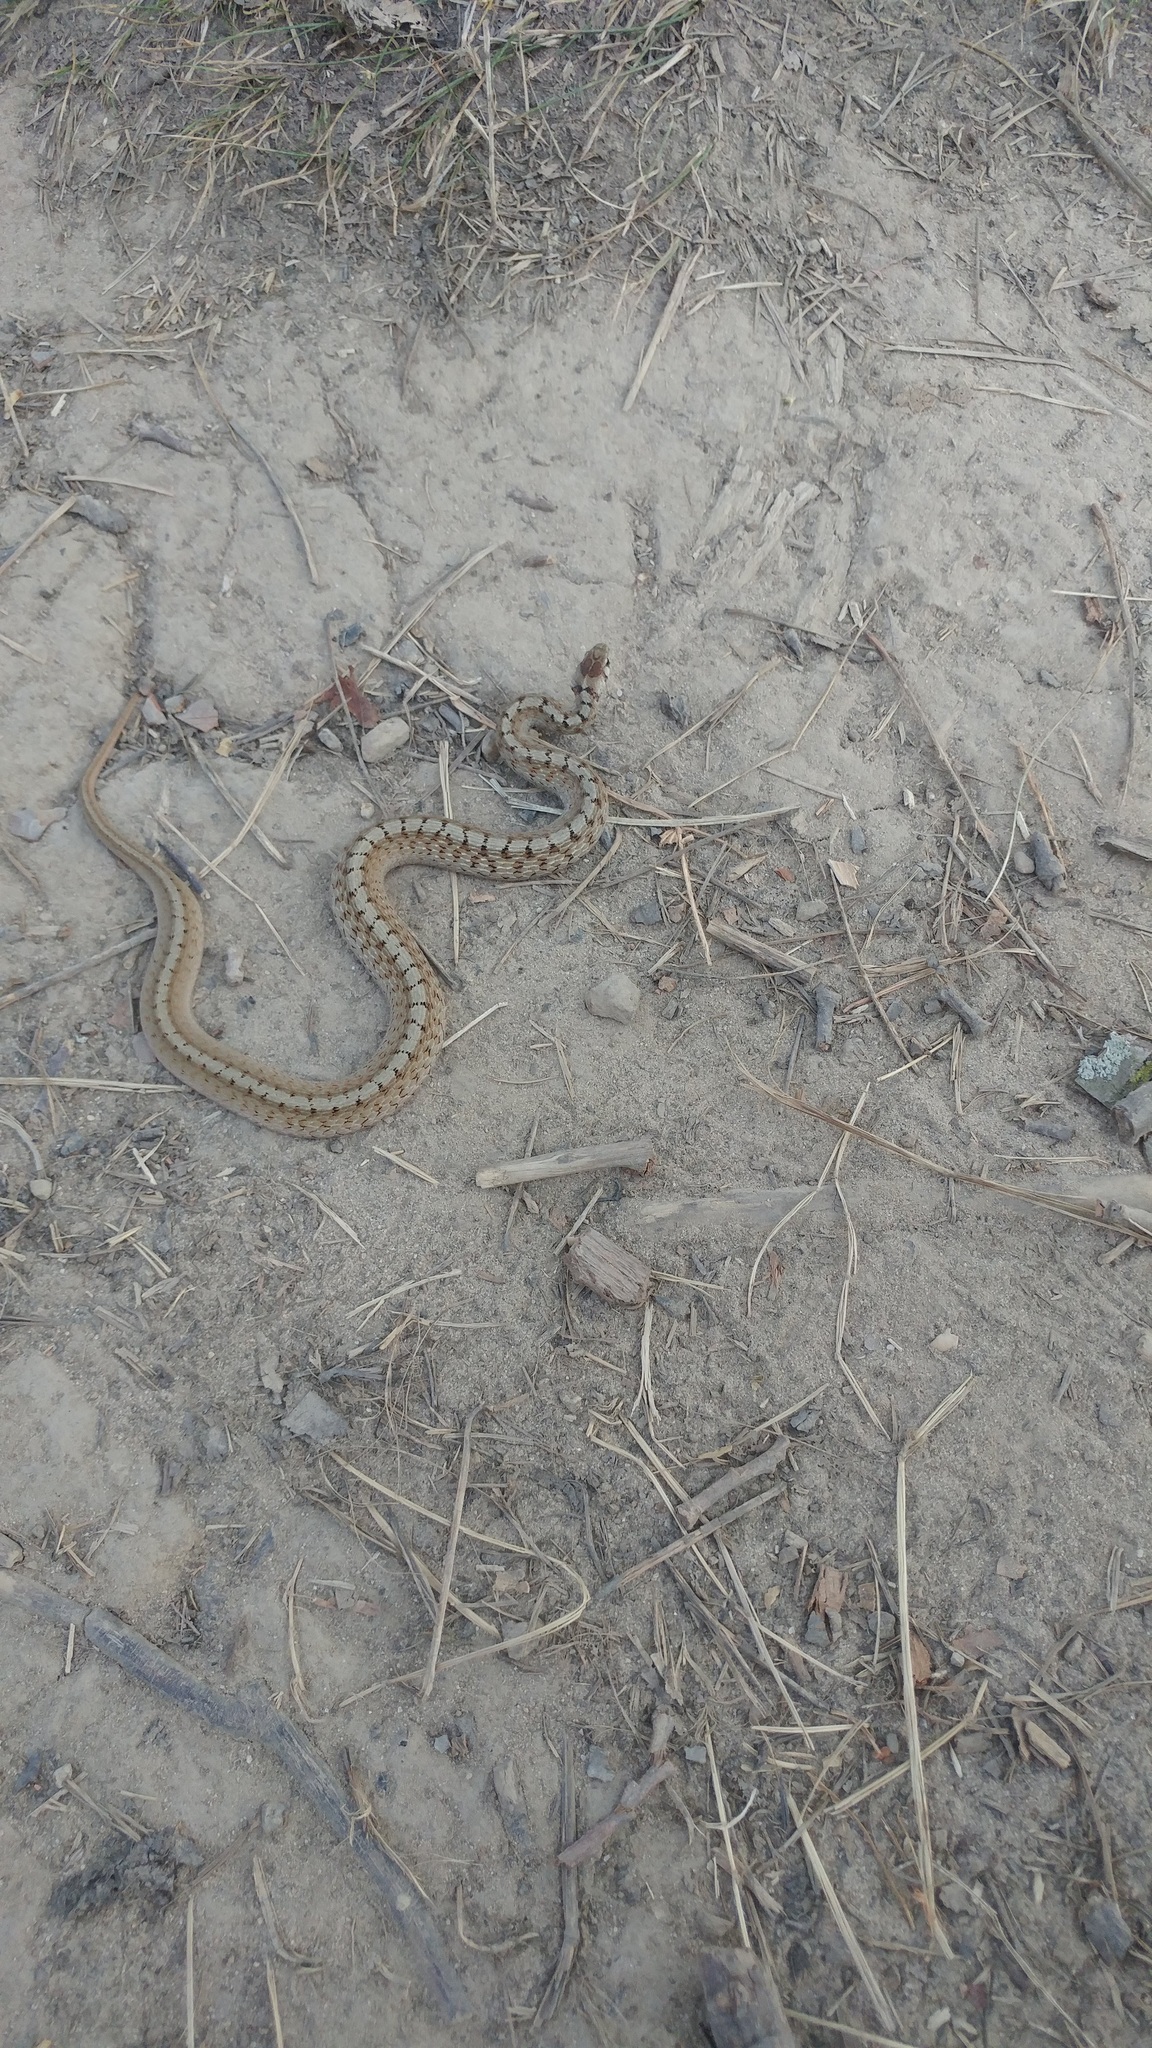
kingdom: Animalia
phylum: Chordata
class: Squamata
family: Colubridae
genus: Storeria
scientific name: Storeria dekayi
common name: (dekay’s) brown snake
